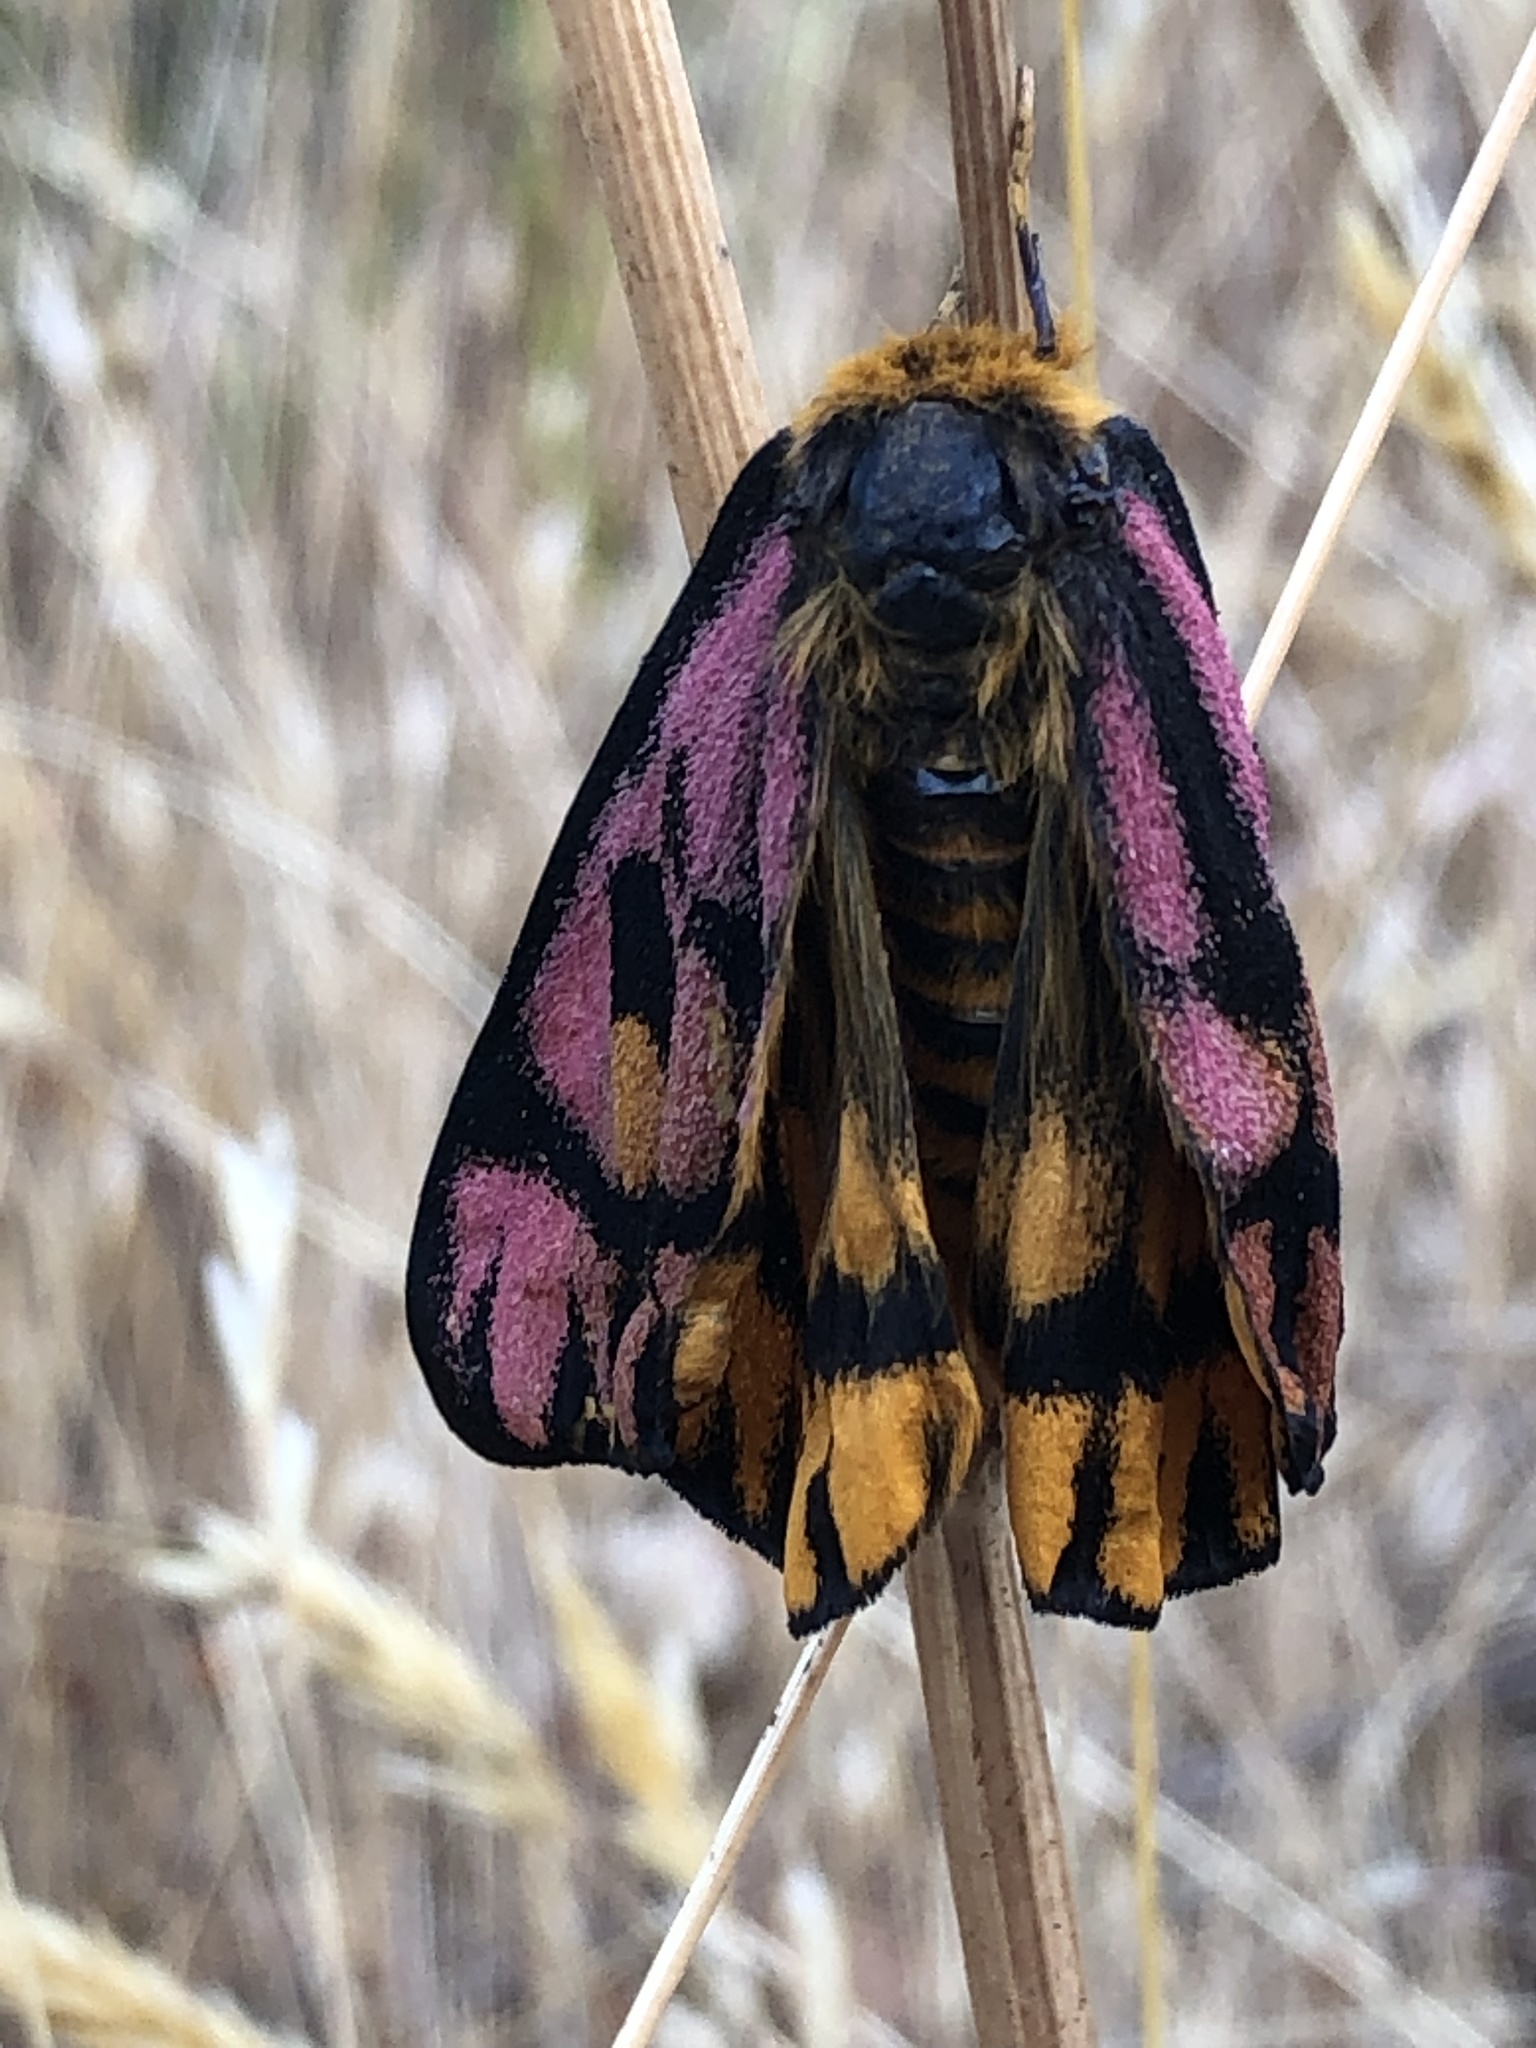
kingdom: Animalia
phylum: Arthropoda
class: Insecta
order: Lepidoptera
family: Saturniidae
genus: Hemileuca
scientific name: Hemileuca eglanterina
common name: Western sheepmoth
